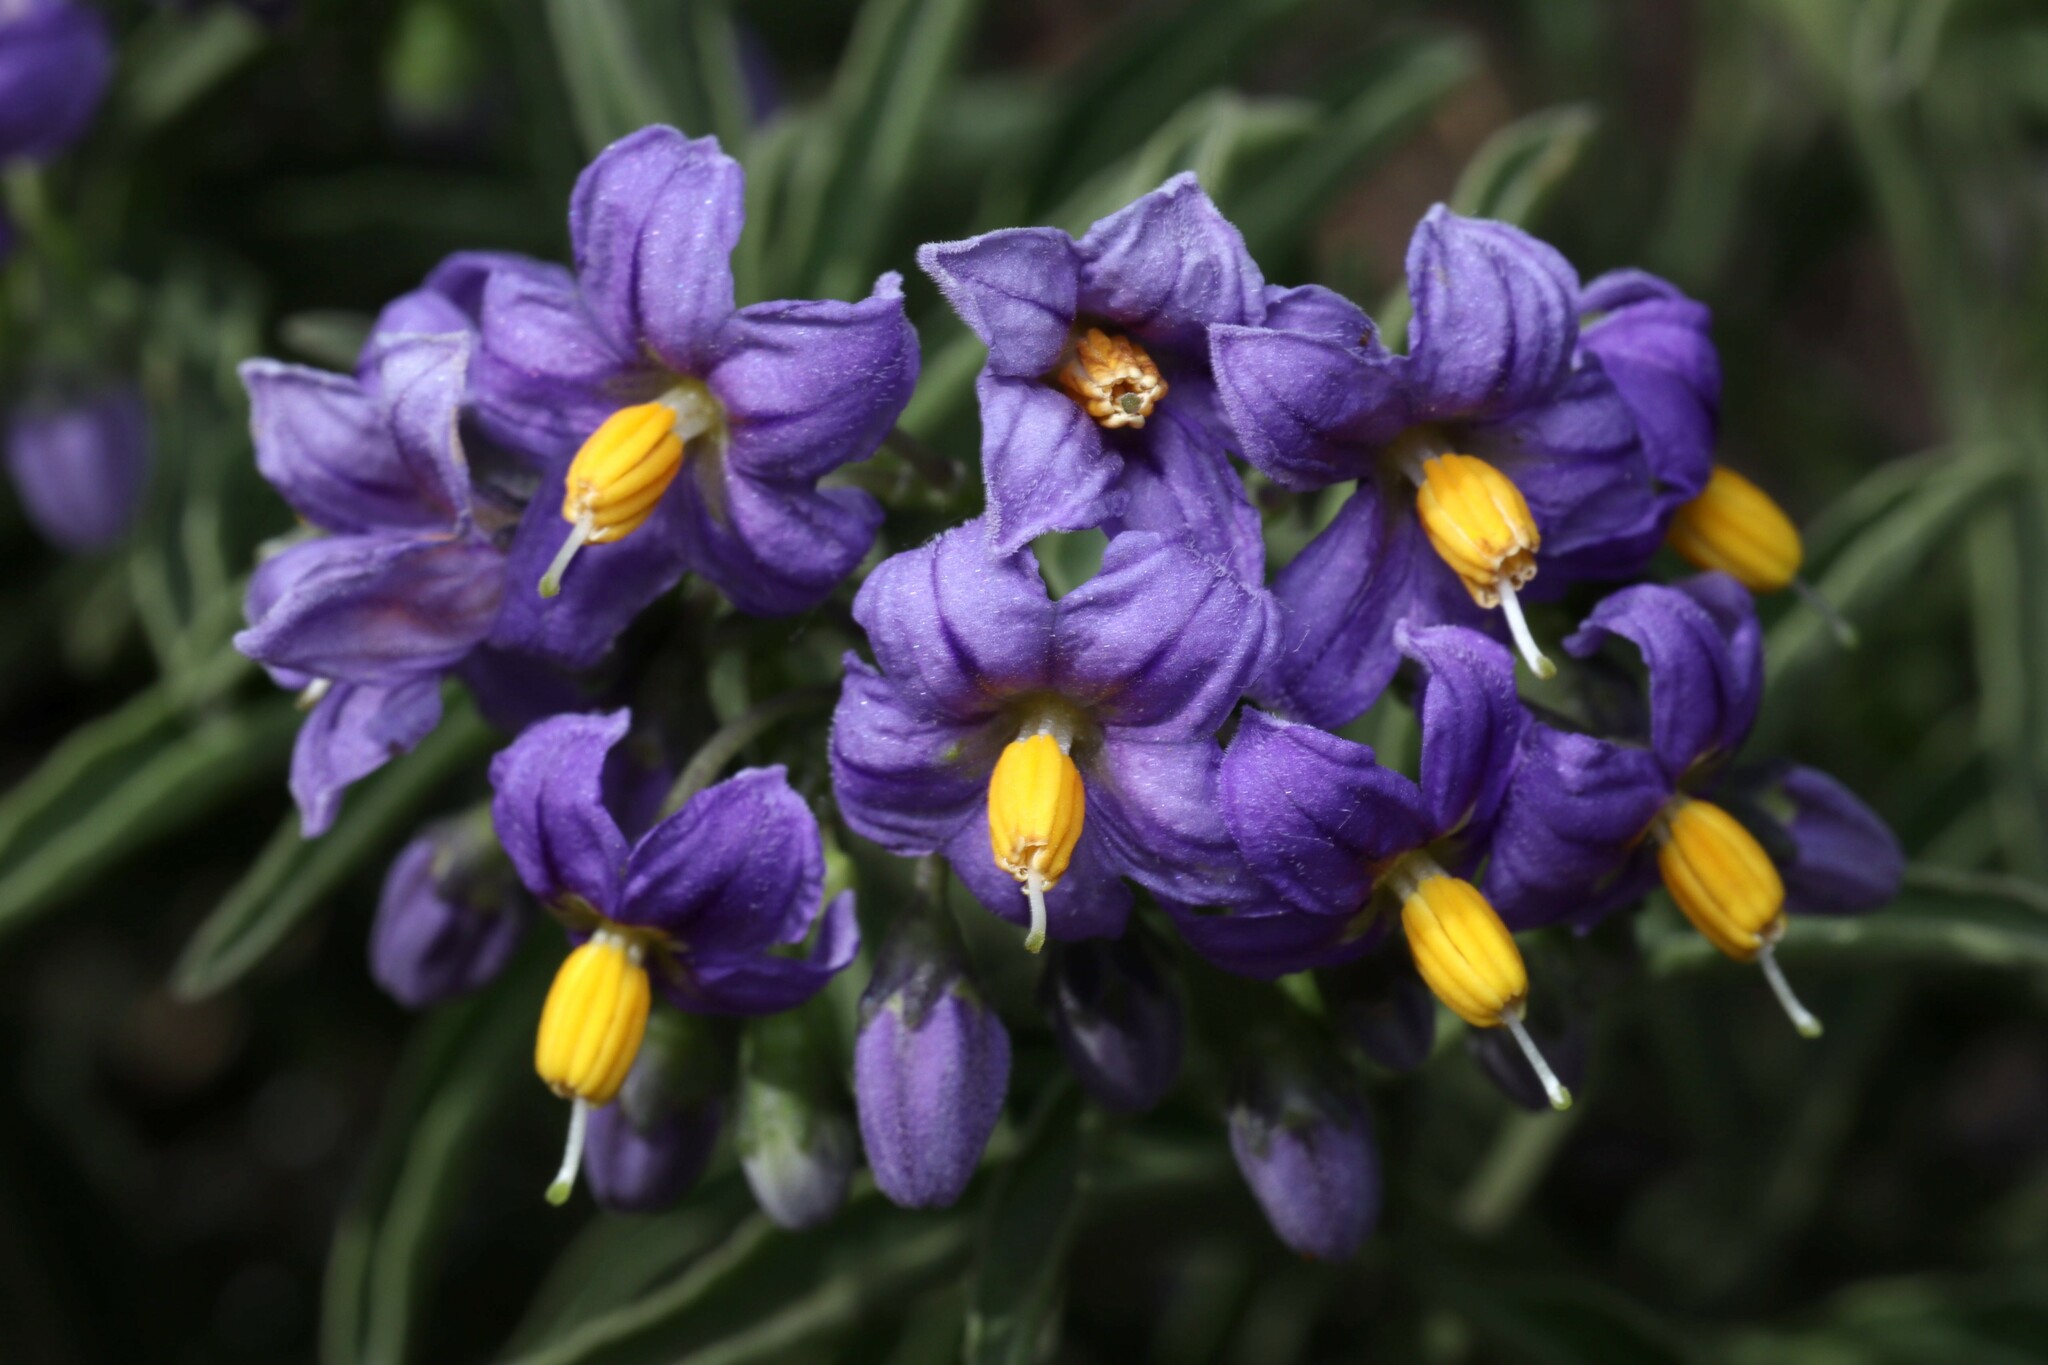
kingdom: Plantae
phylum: Tracheophyta
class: Magnoliopsida
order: Solanales
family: Solanaceae
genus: Solanum
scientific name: Solanum crispum
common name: Chilean nightshade
